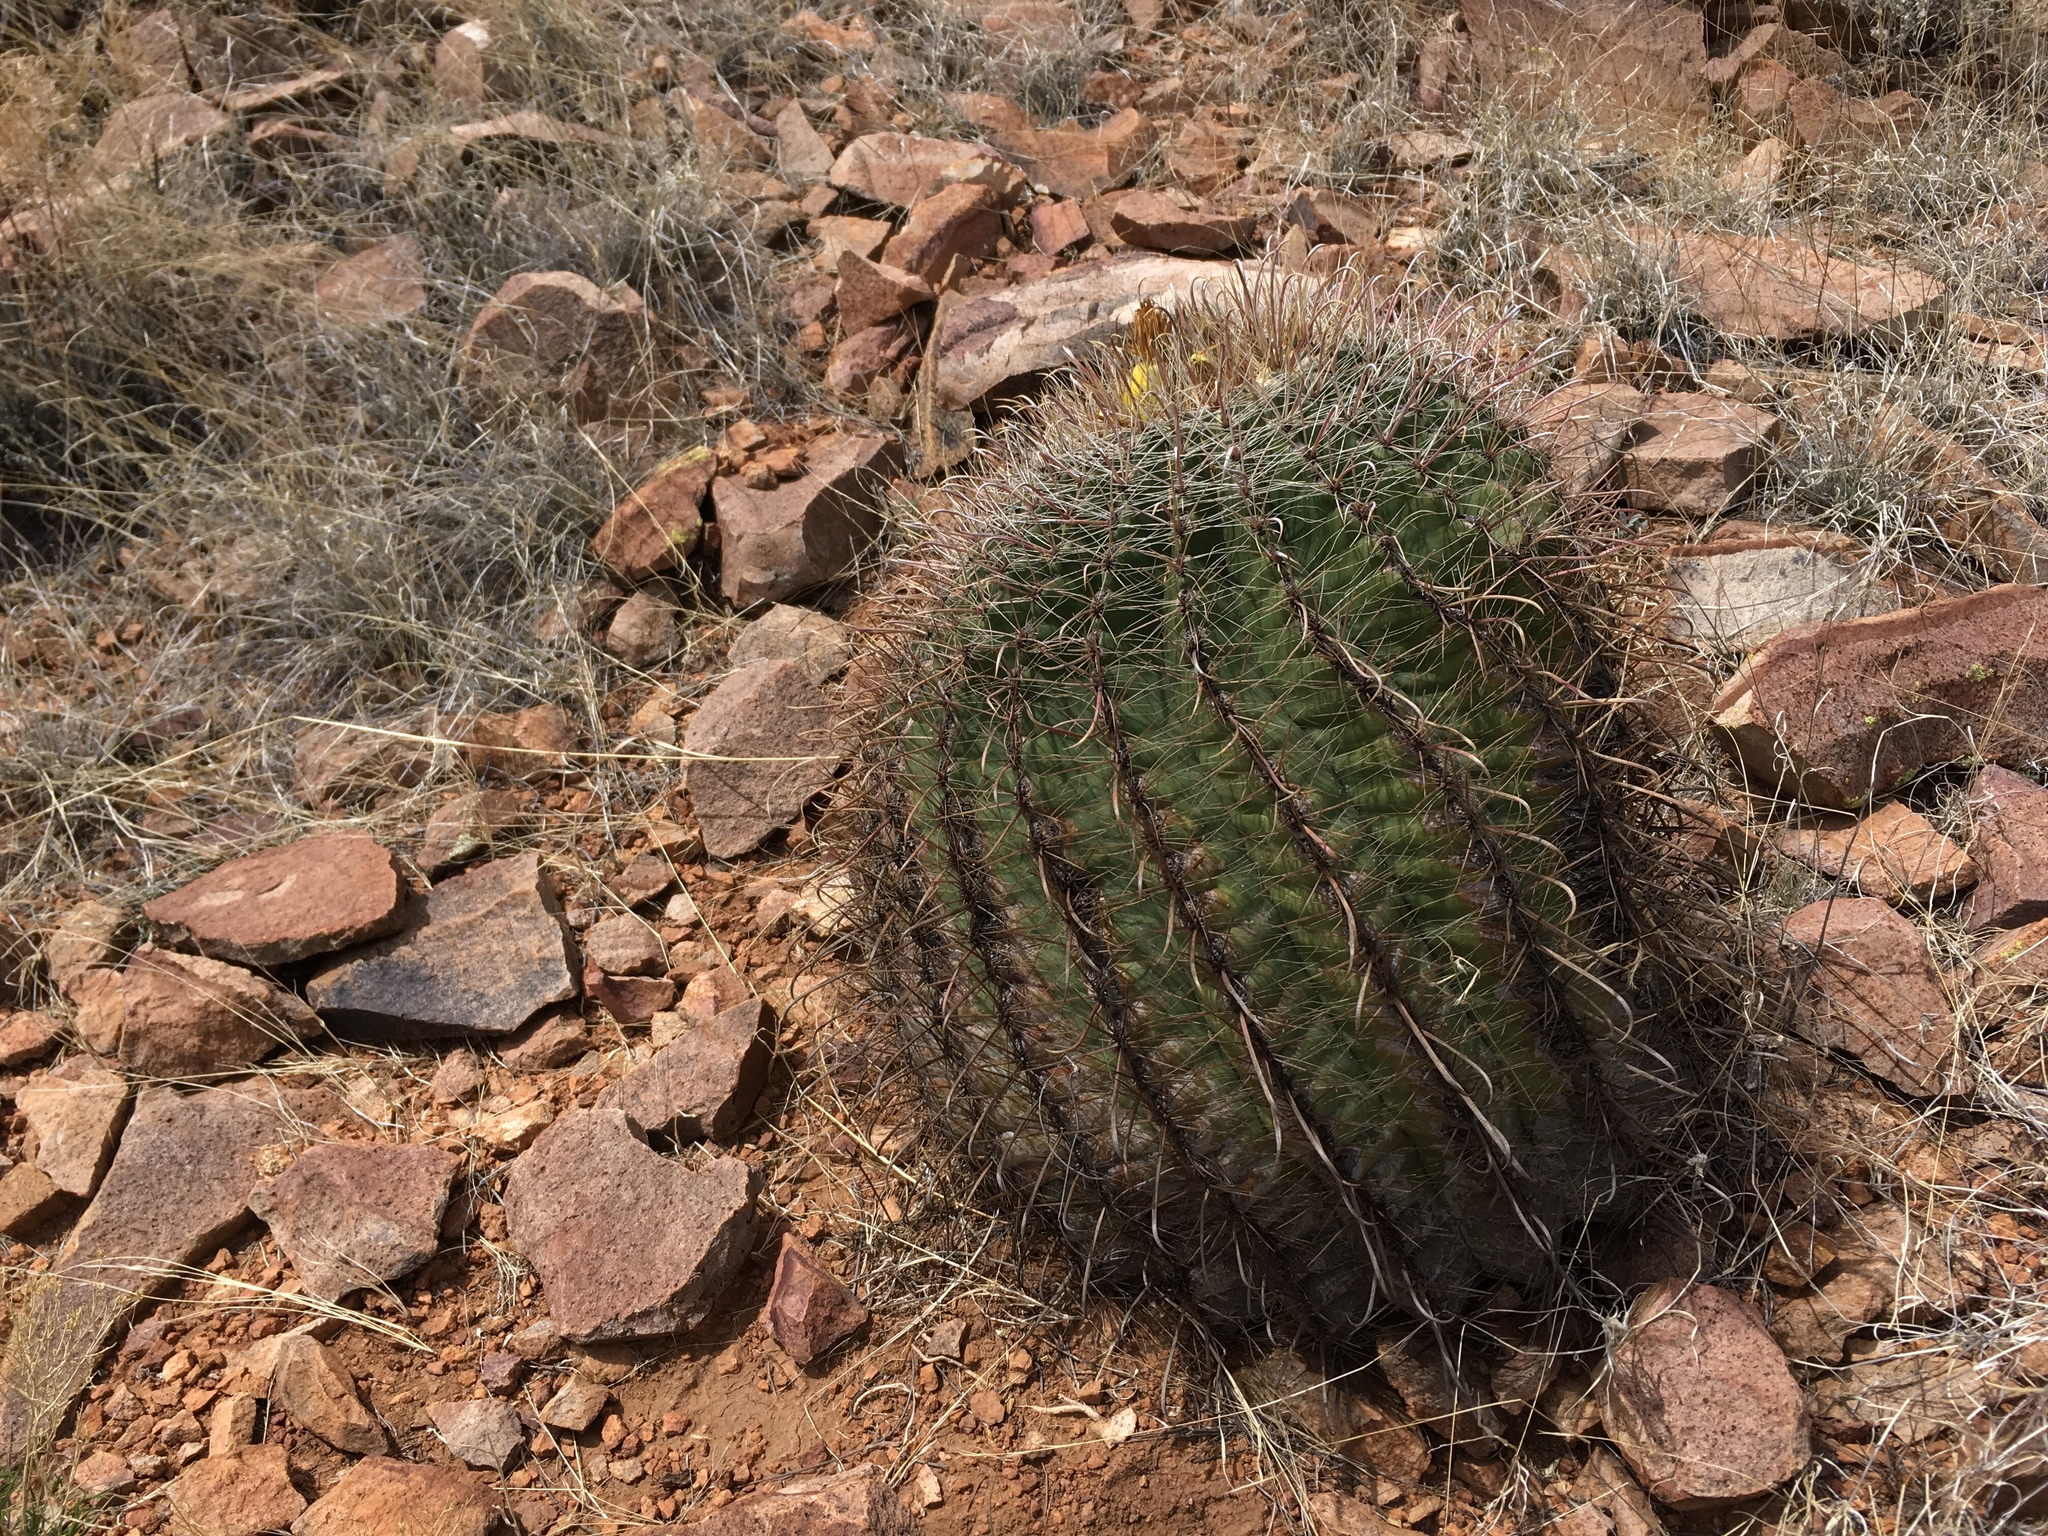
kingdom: Plantae
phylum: Tracheophyta
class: Magnoliopsida
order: Caryophyllales
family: Cactaceae
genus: Ferocactus
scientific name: Ferocactus wislizeni
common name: Candy barrel cactus
